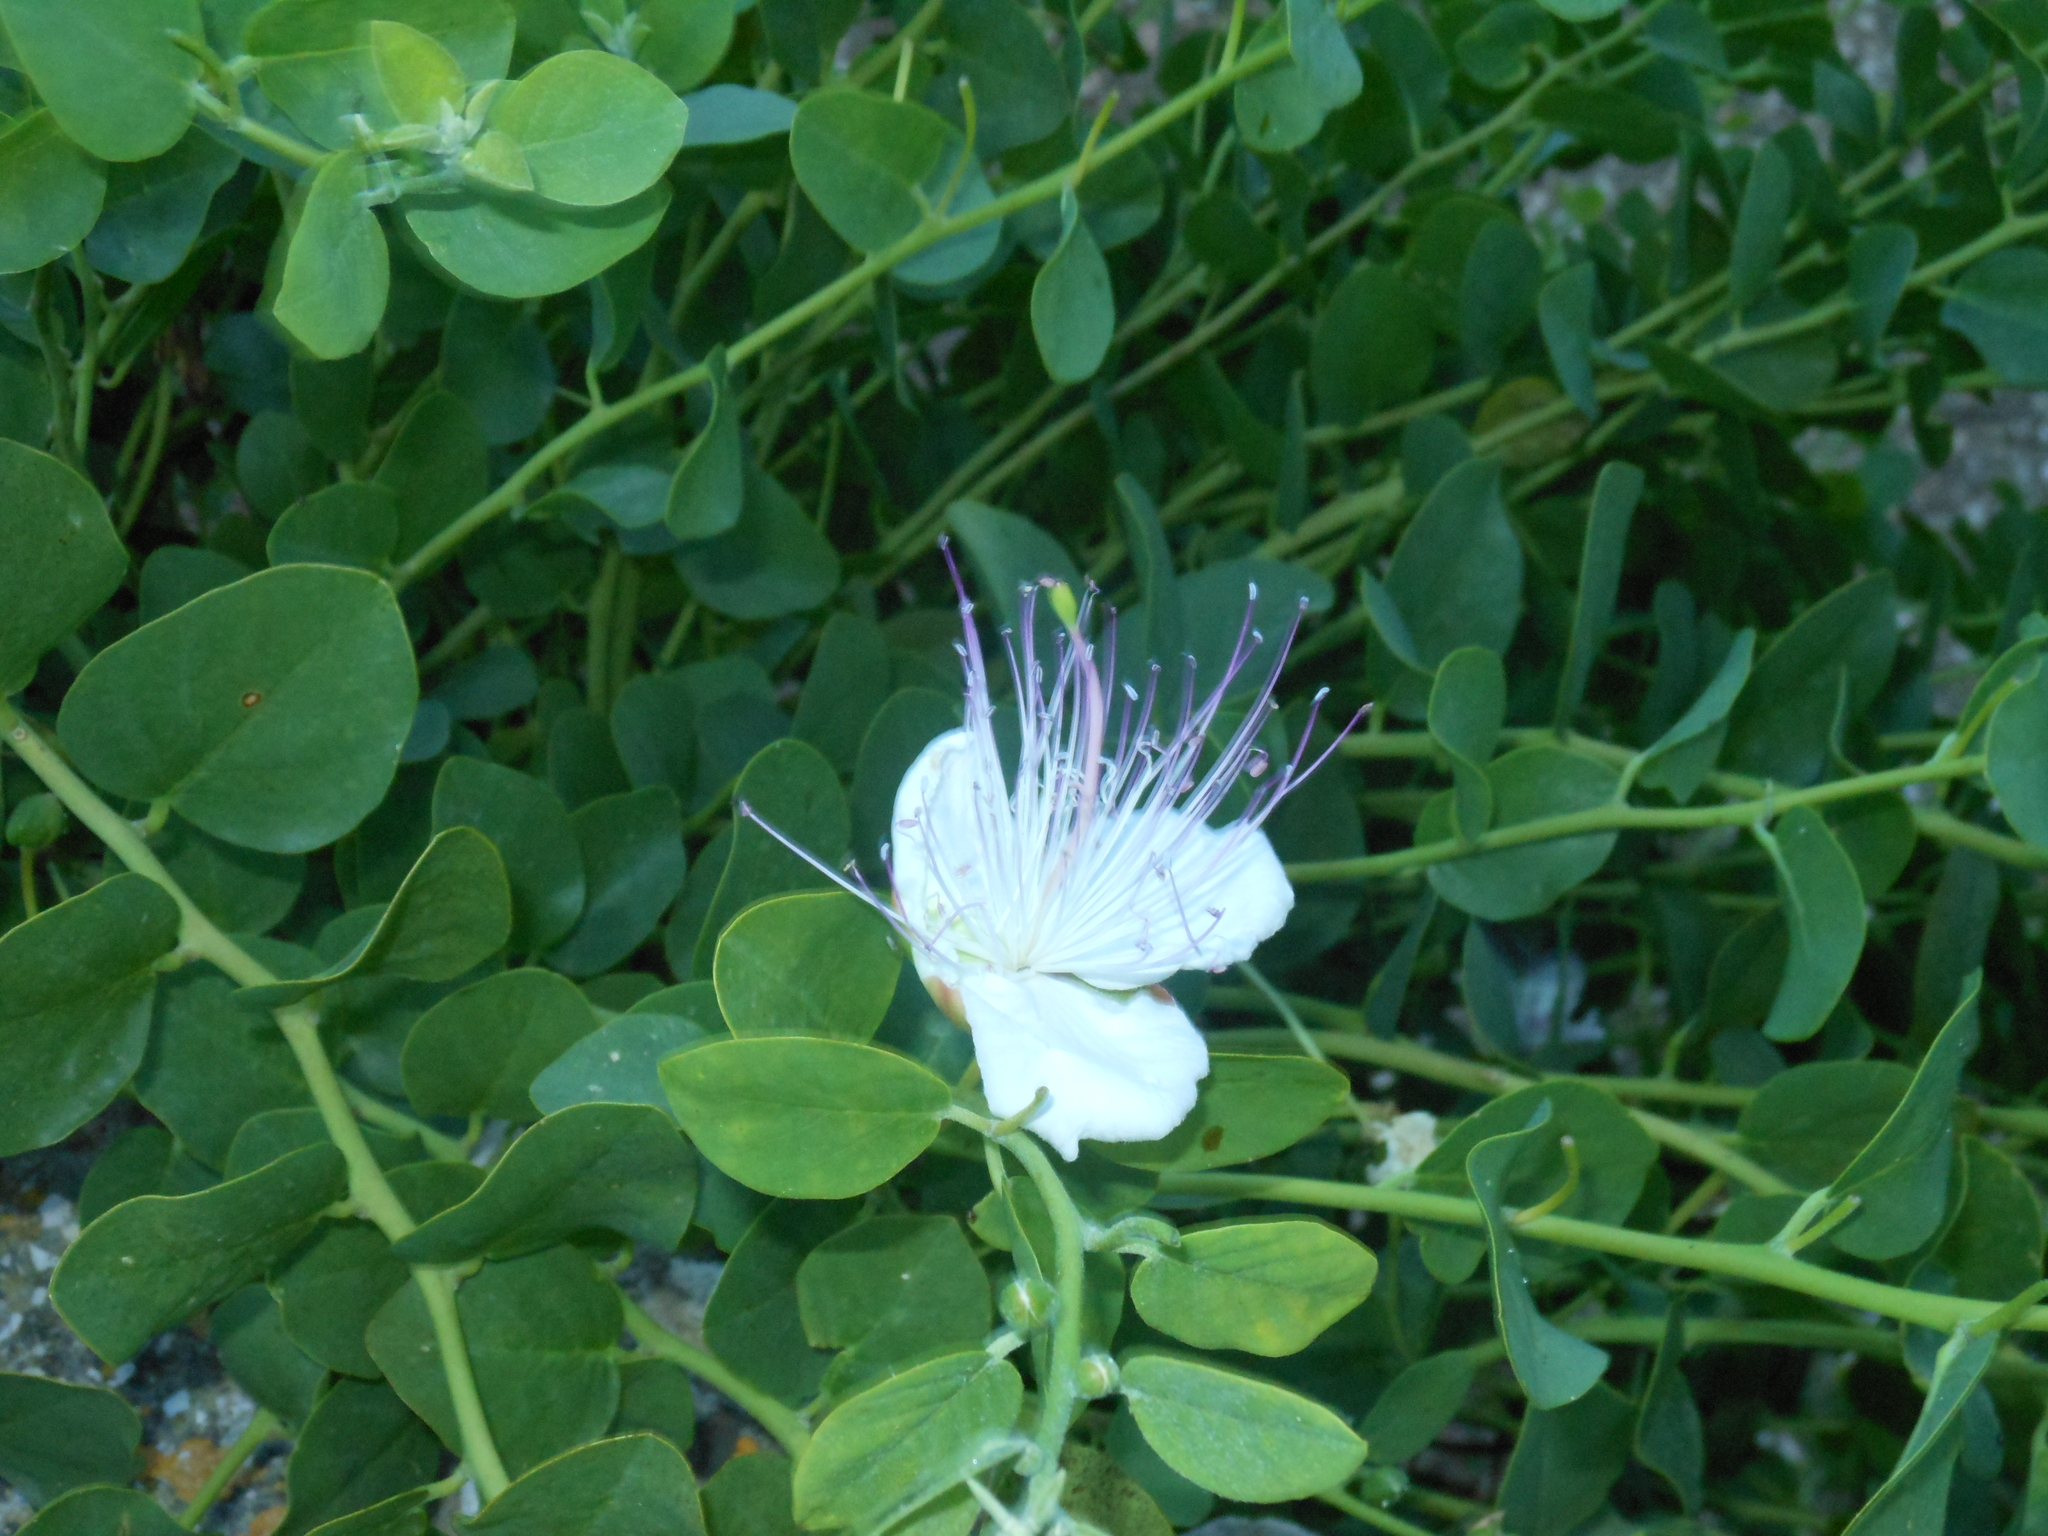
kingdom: Plantae
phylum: Tracheophyta
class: Magnoliopsida
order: Brassicales
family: Capparaceae
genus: Capparis
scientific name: Capparis orientalis
